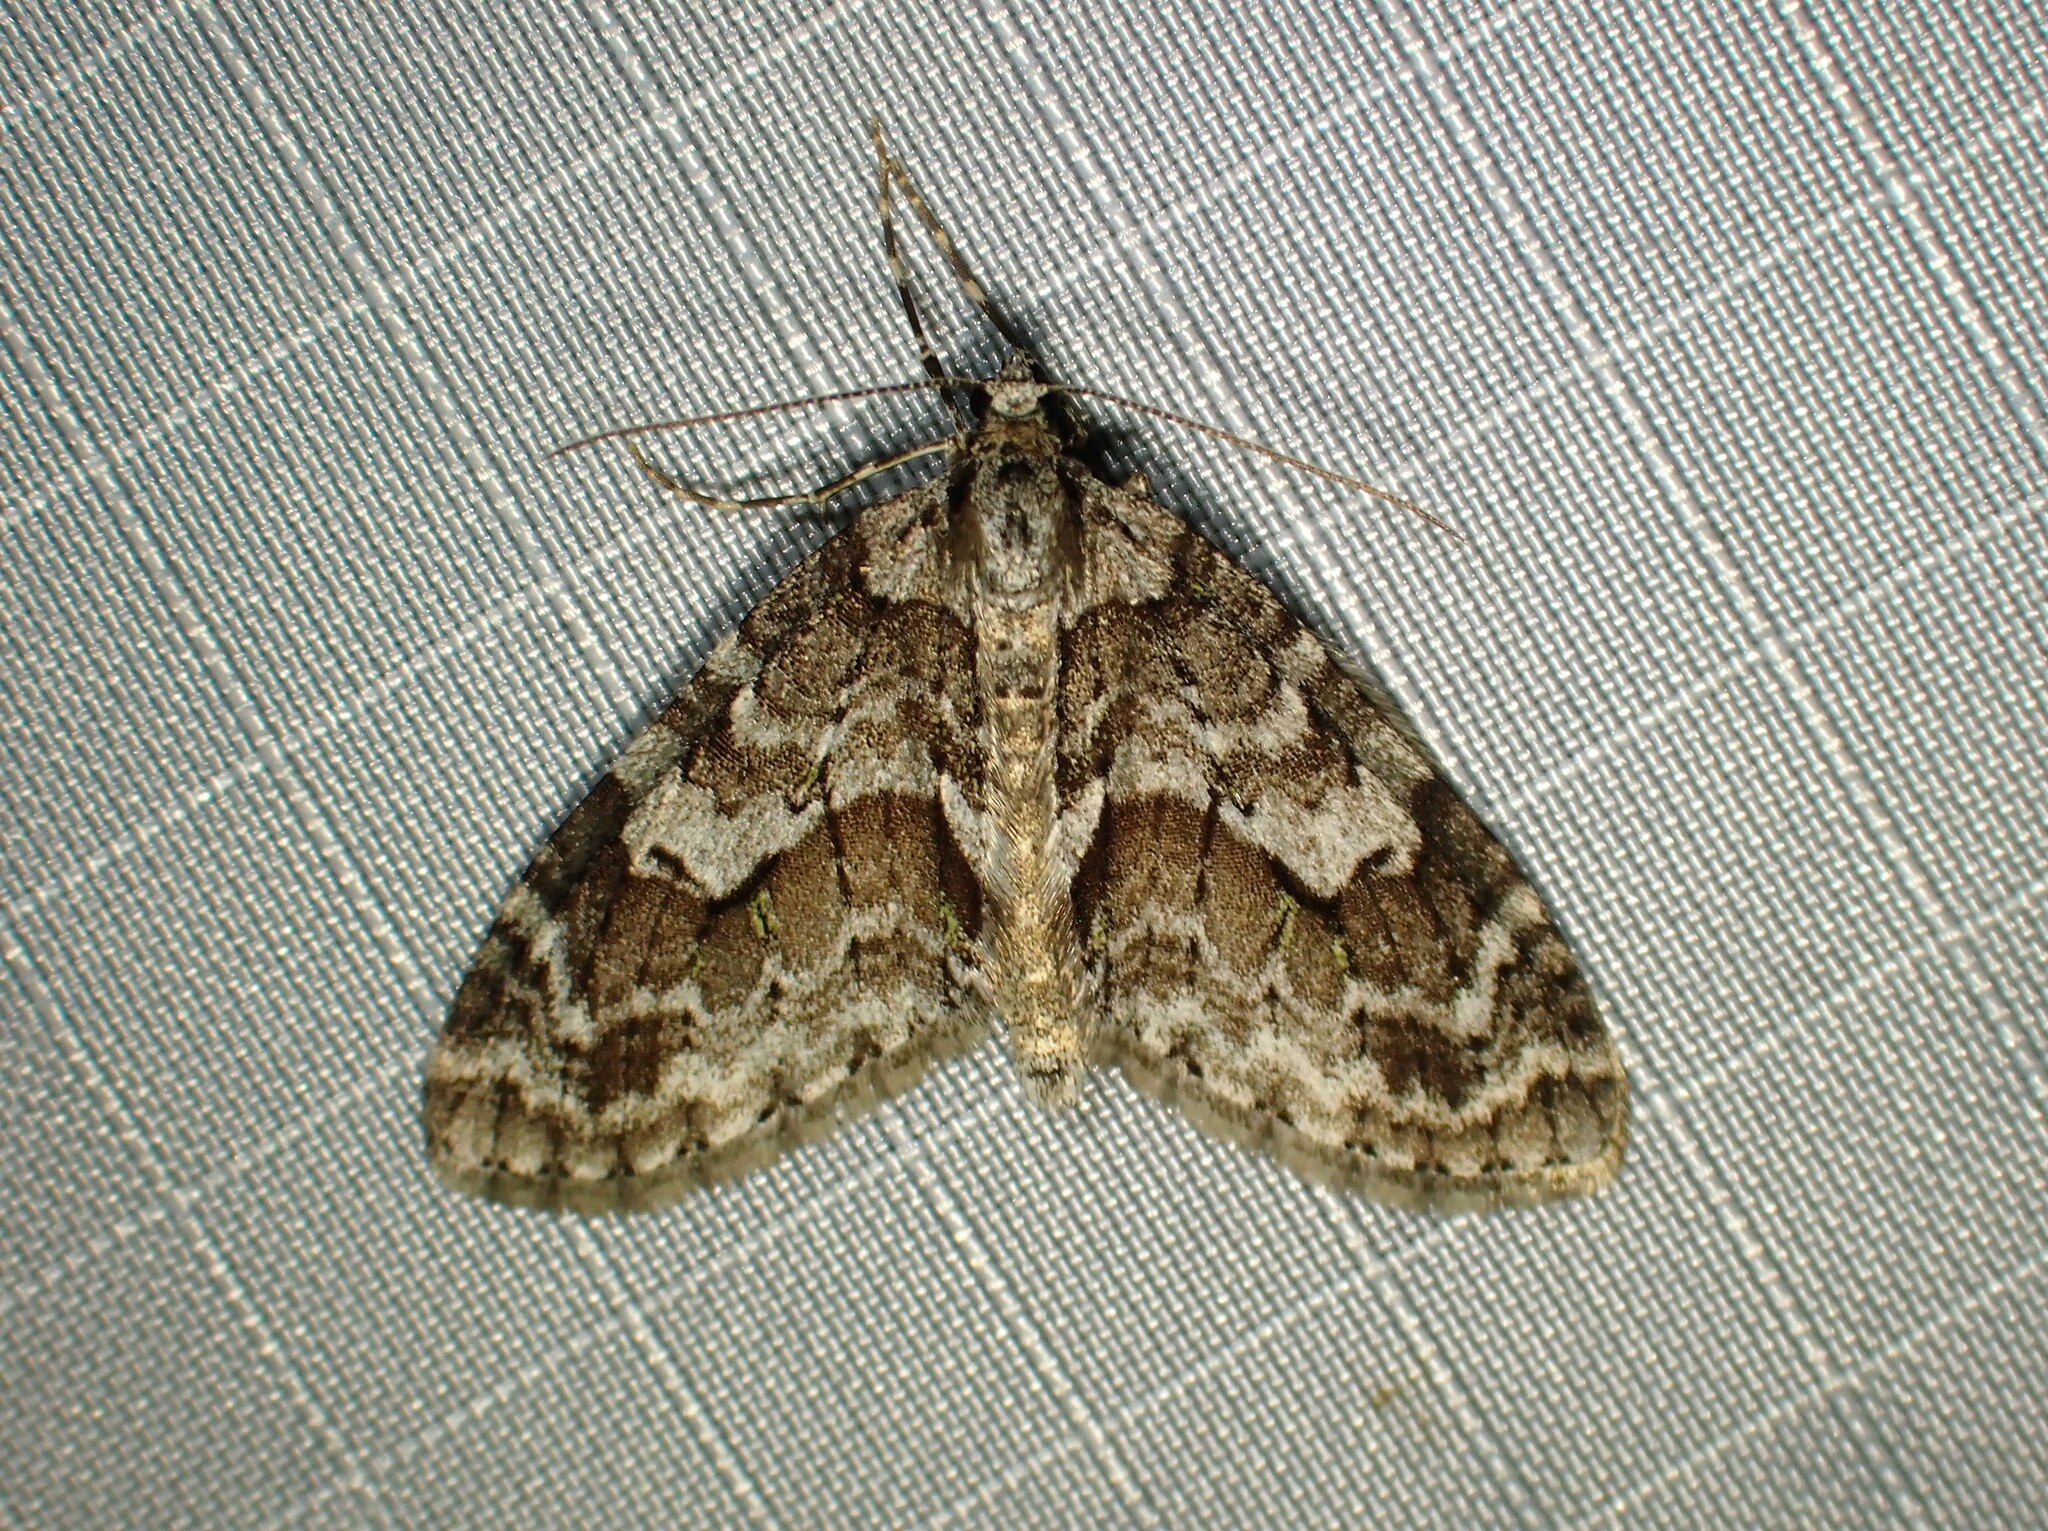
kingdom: Animalia
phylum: Arthropoda
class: Insecta
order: Lepidoptera
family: Geometridae
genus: Cladara
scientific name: Cladara limitaria
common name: Mottled gray carpet
